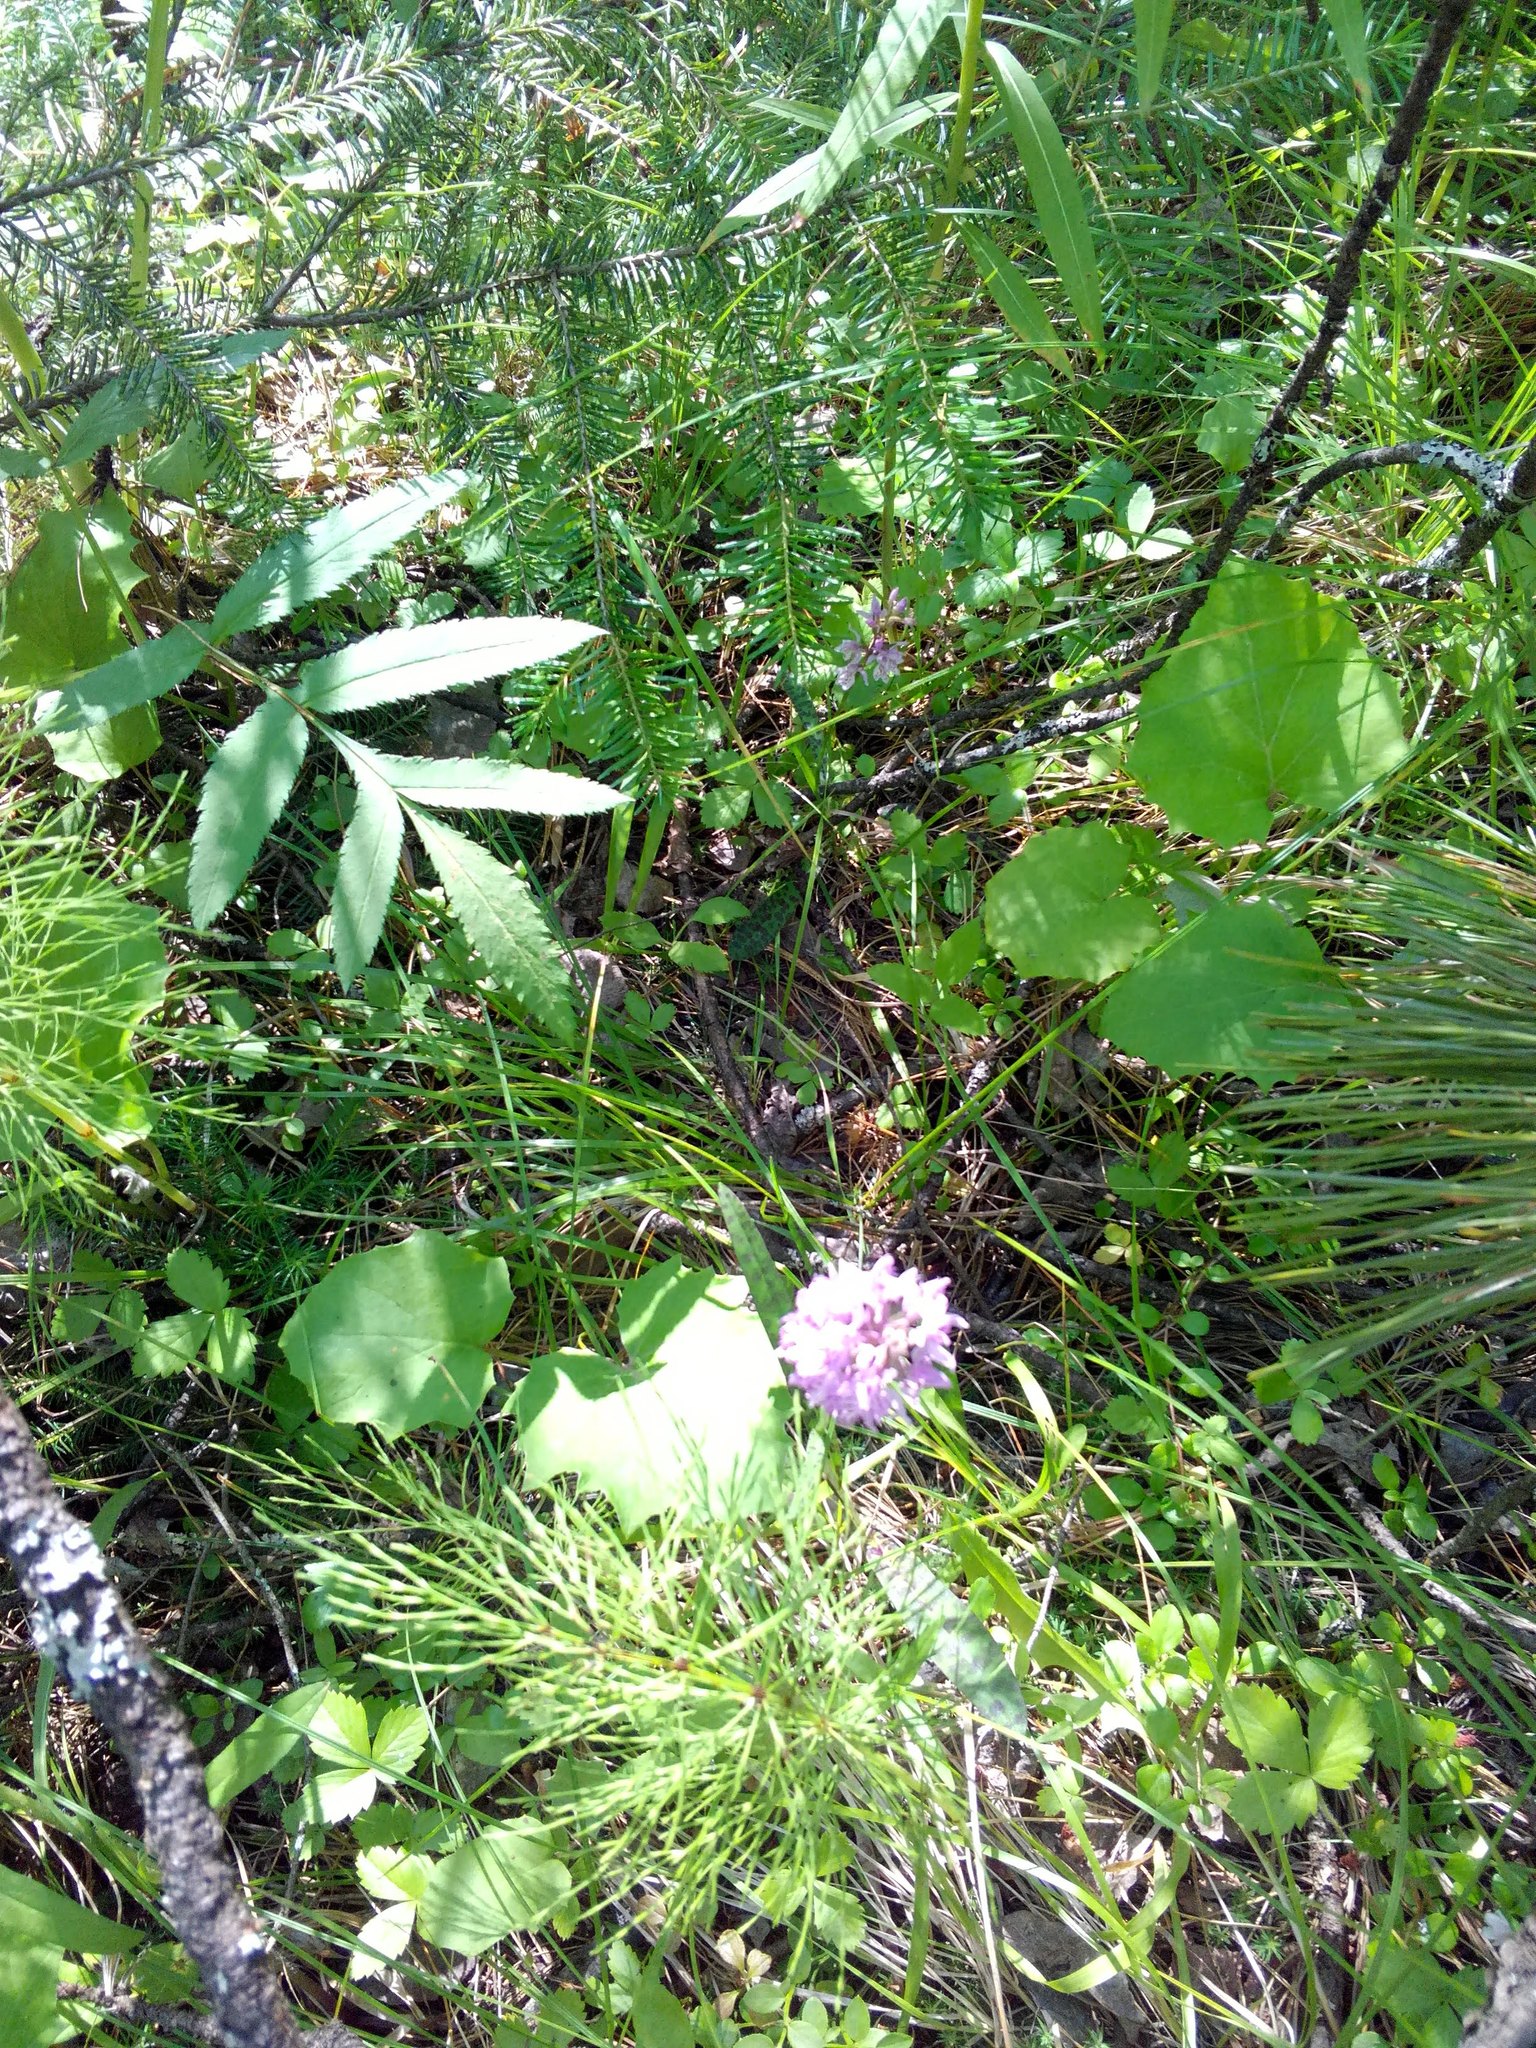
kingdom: Plantae
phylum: Tracheophyta
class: Liliopsida
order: Asparagales
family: Orchidaceae
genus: Dactylorhiza
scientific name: Dactylorhiza maculata
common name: Heath spotted-orchid
